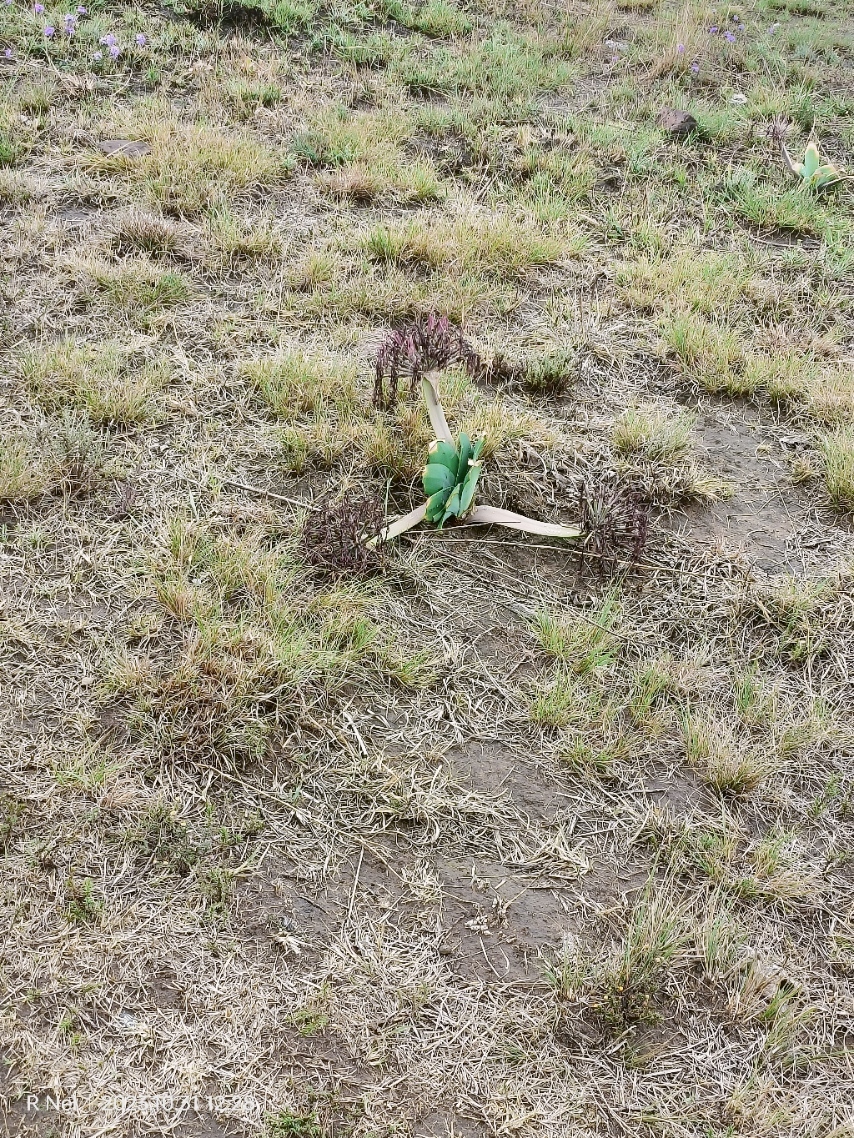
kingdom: Plantae
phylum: Tracheophyta
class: Liliopsida
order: Asparagales
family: Amaryllidaceae
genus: Ammocharis
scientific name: Ammocharis coranica
